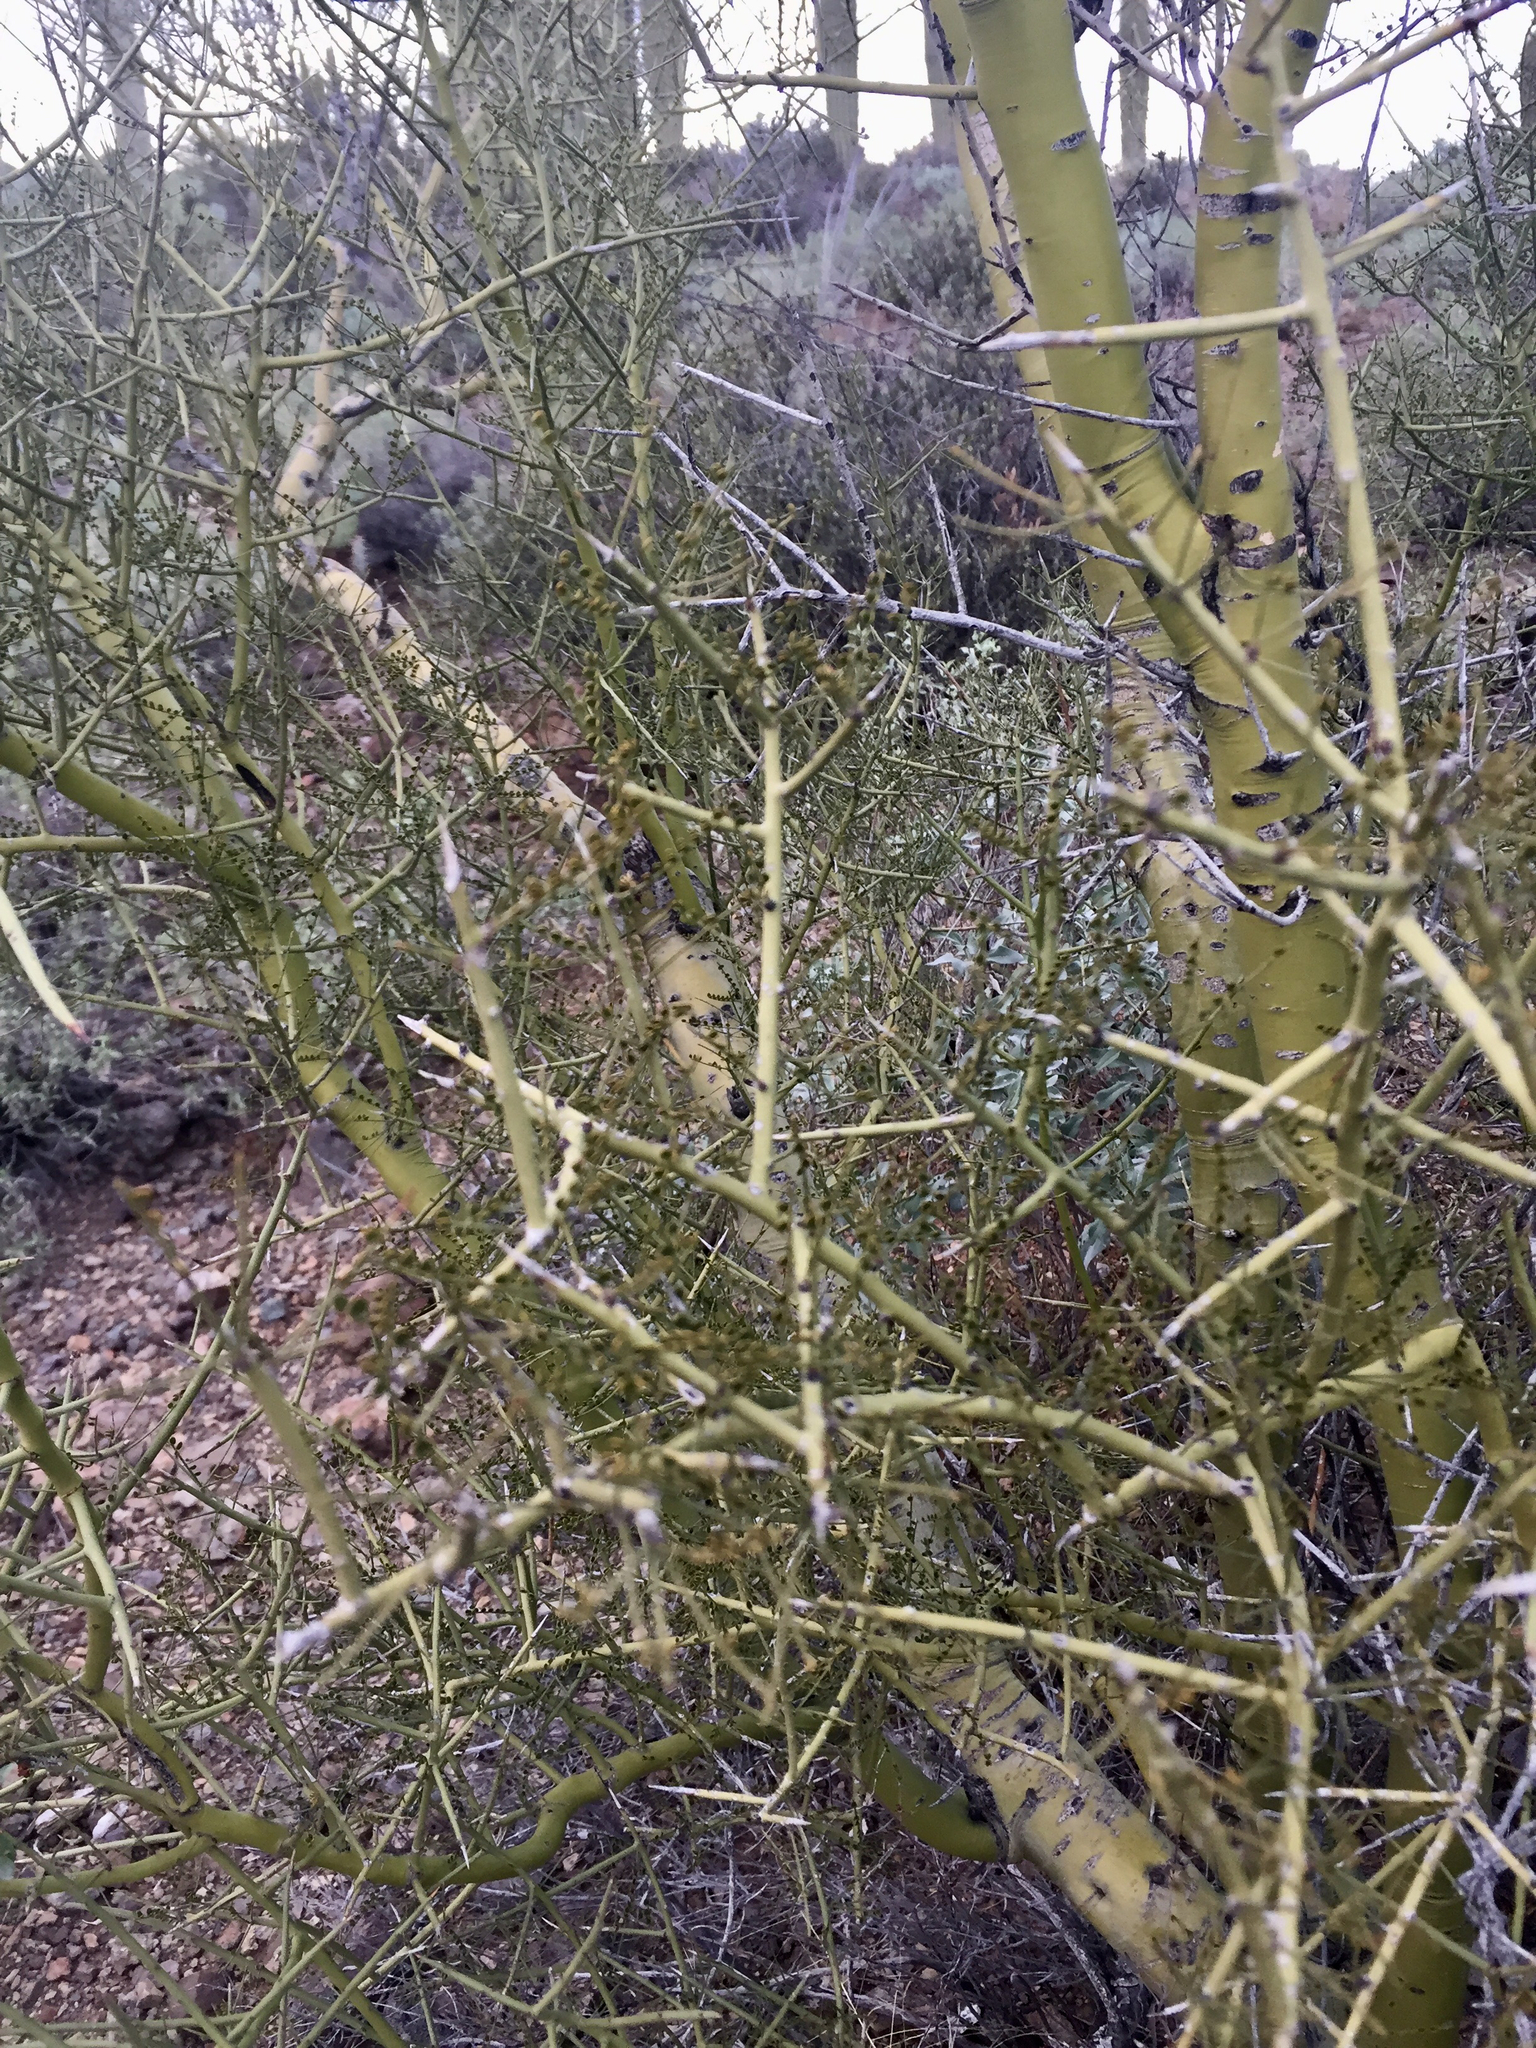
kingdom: Plantae
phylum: Tracheophyta
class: Magnoliopsida
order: Fabales
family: Fabaceae
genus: Parkinsonia
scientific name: Parkinsonia microphylla
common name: Yellow paloverde
